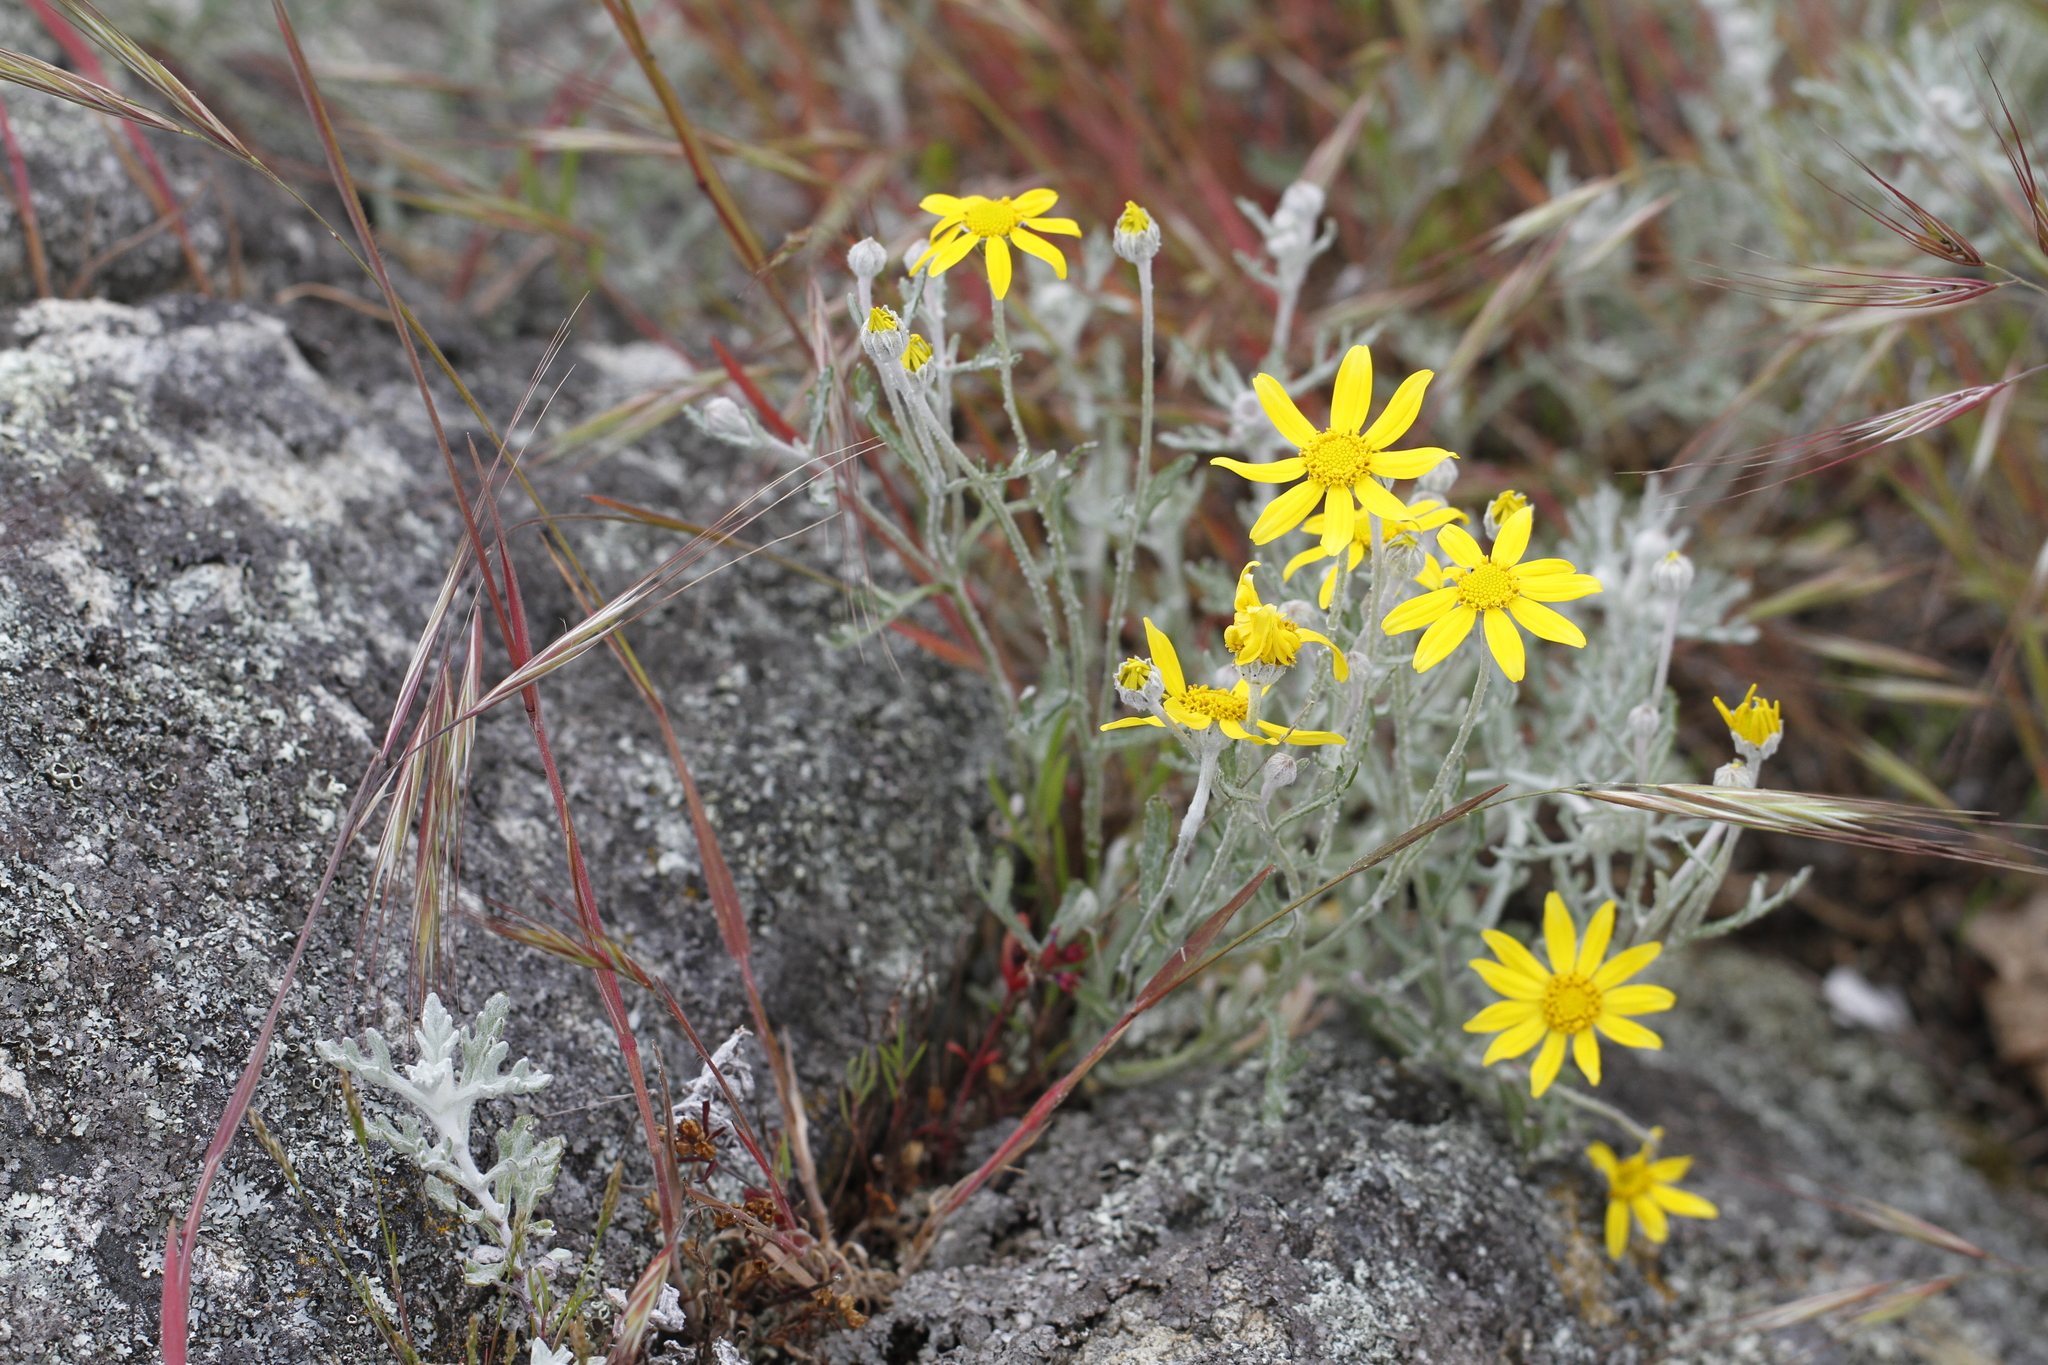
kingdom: Plantae
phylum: Tracheophyta
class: Magnoliopsida
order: Asterales
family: Asteraceae
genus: Eriophyllum
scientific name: Eriophyllum lanatum
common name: Common woolly-sunflower
